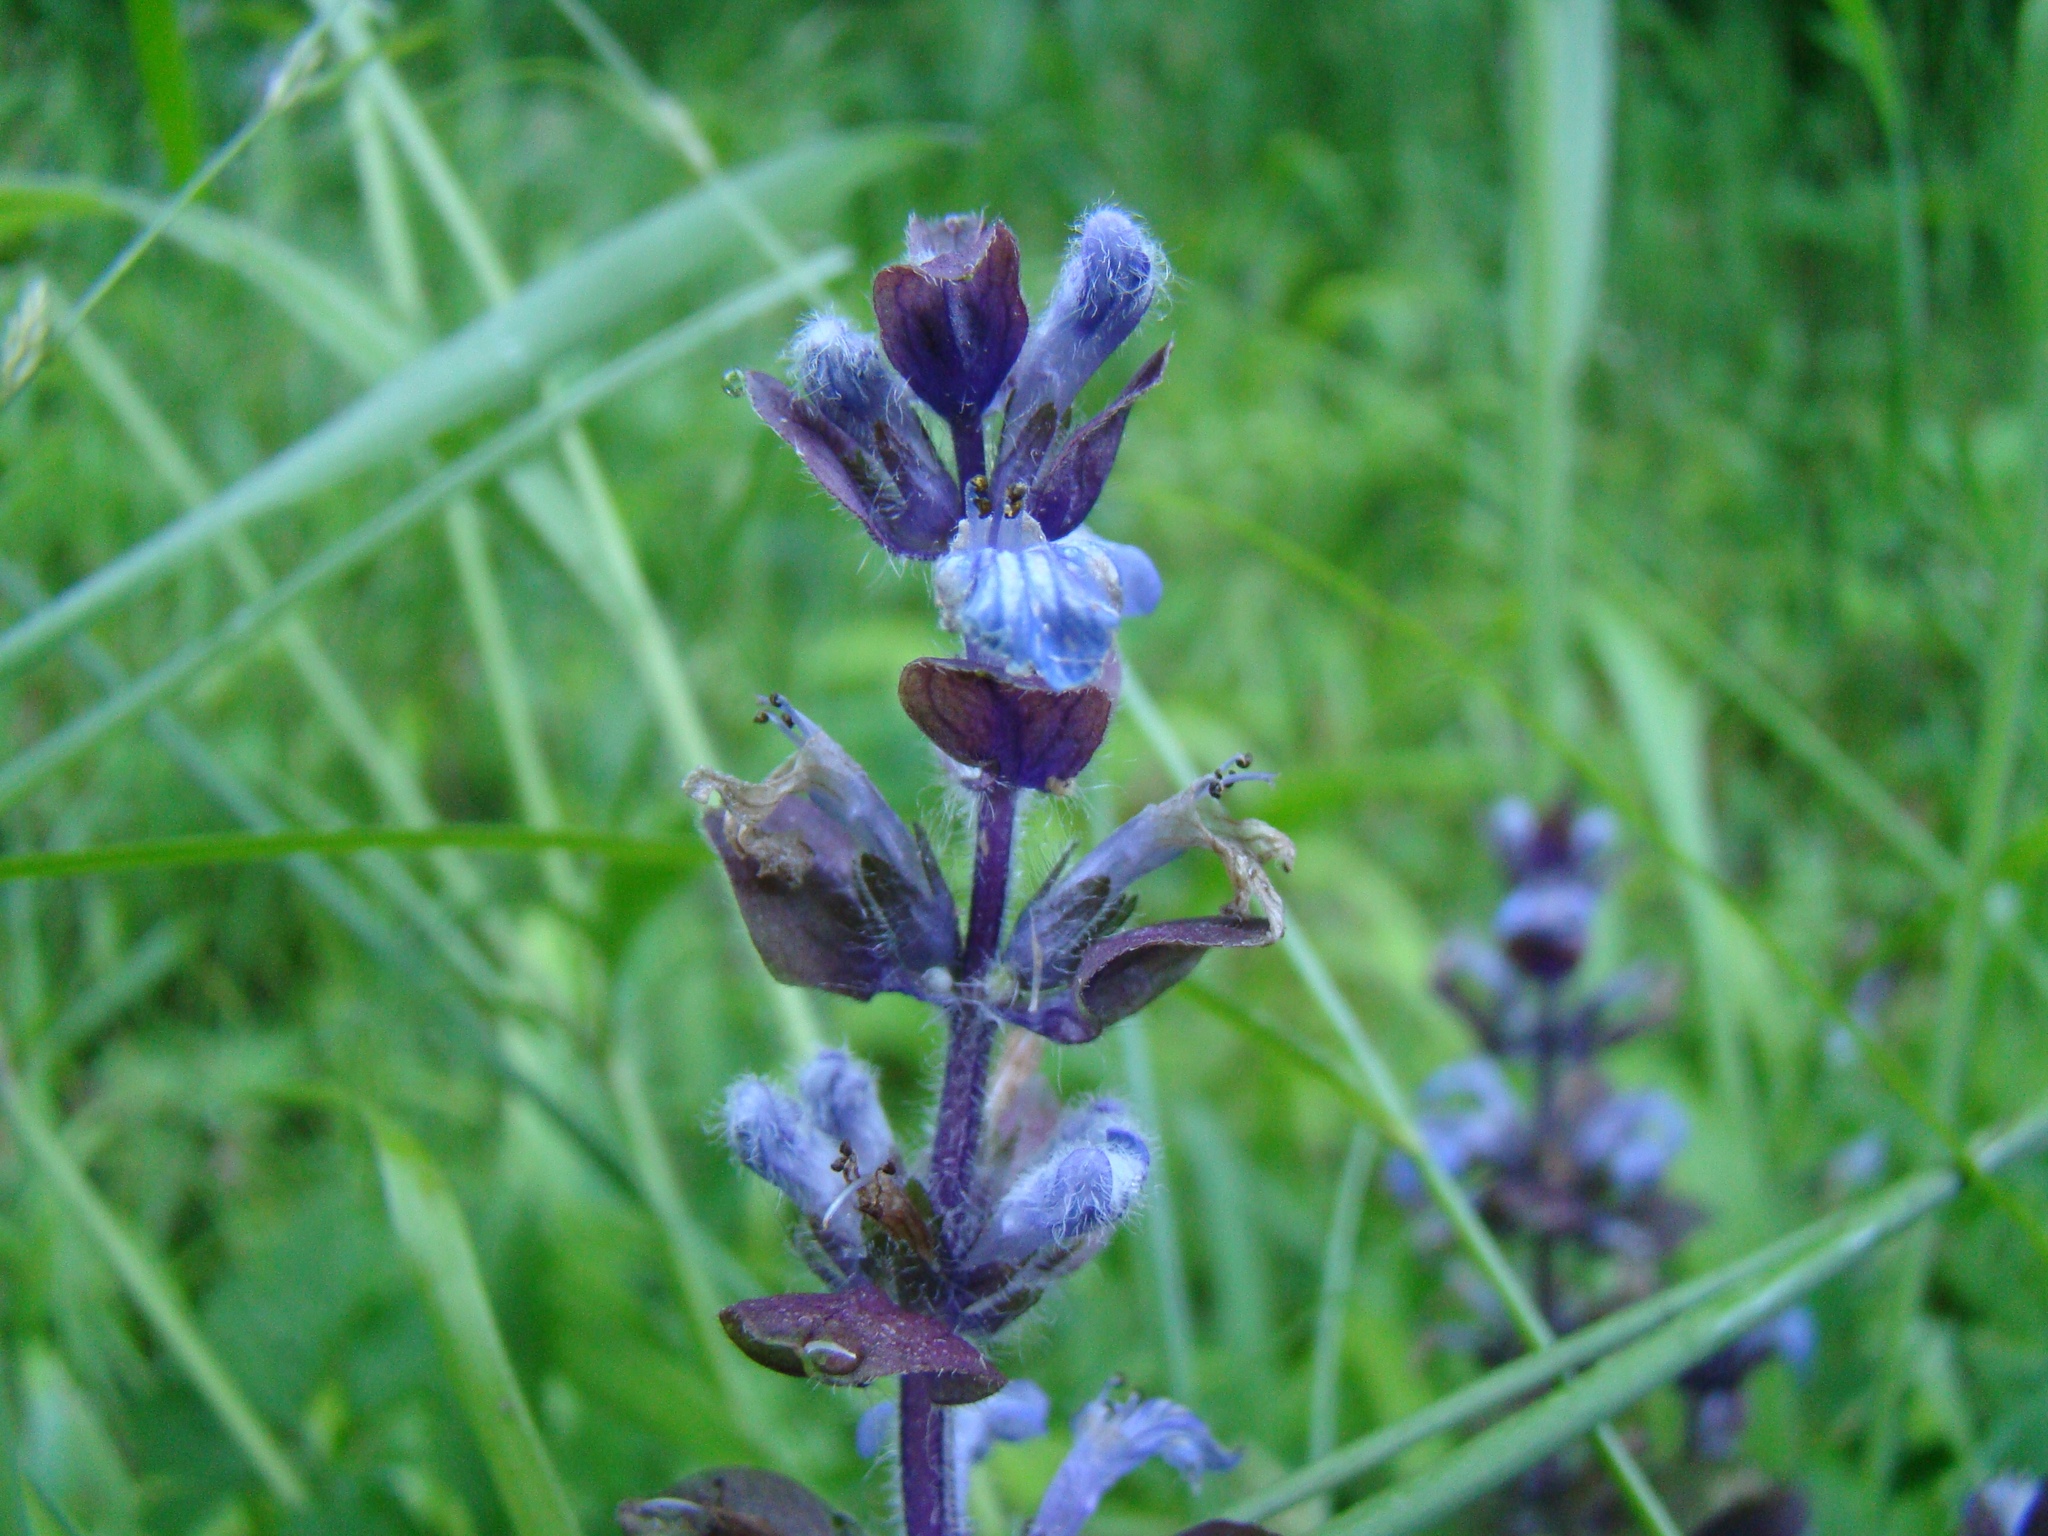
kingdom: Plantae
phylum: Tracheophyta
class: Magnoliopsida
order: Lamiales
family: Lamiaceae
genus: Ajuga
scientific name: Ajuga reptans
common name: Bugle
